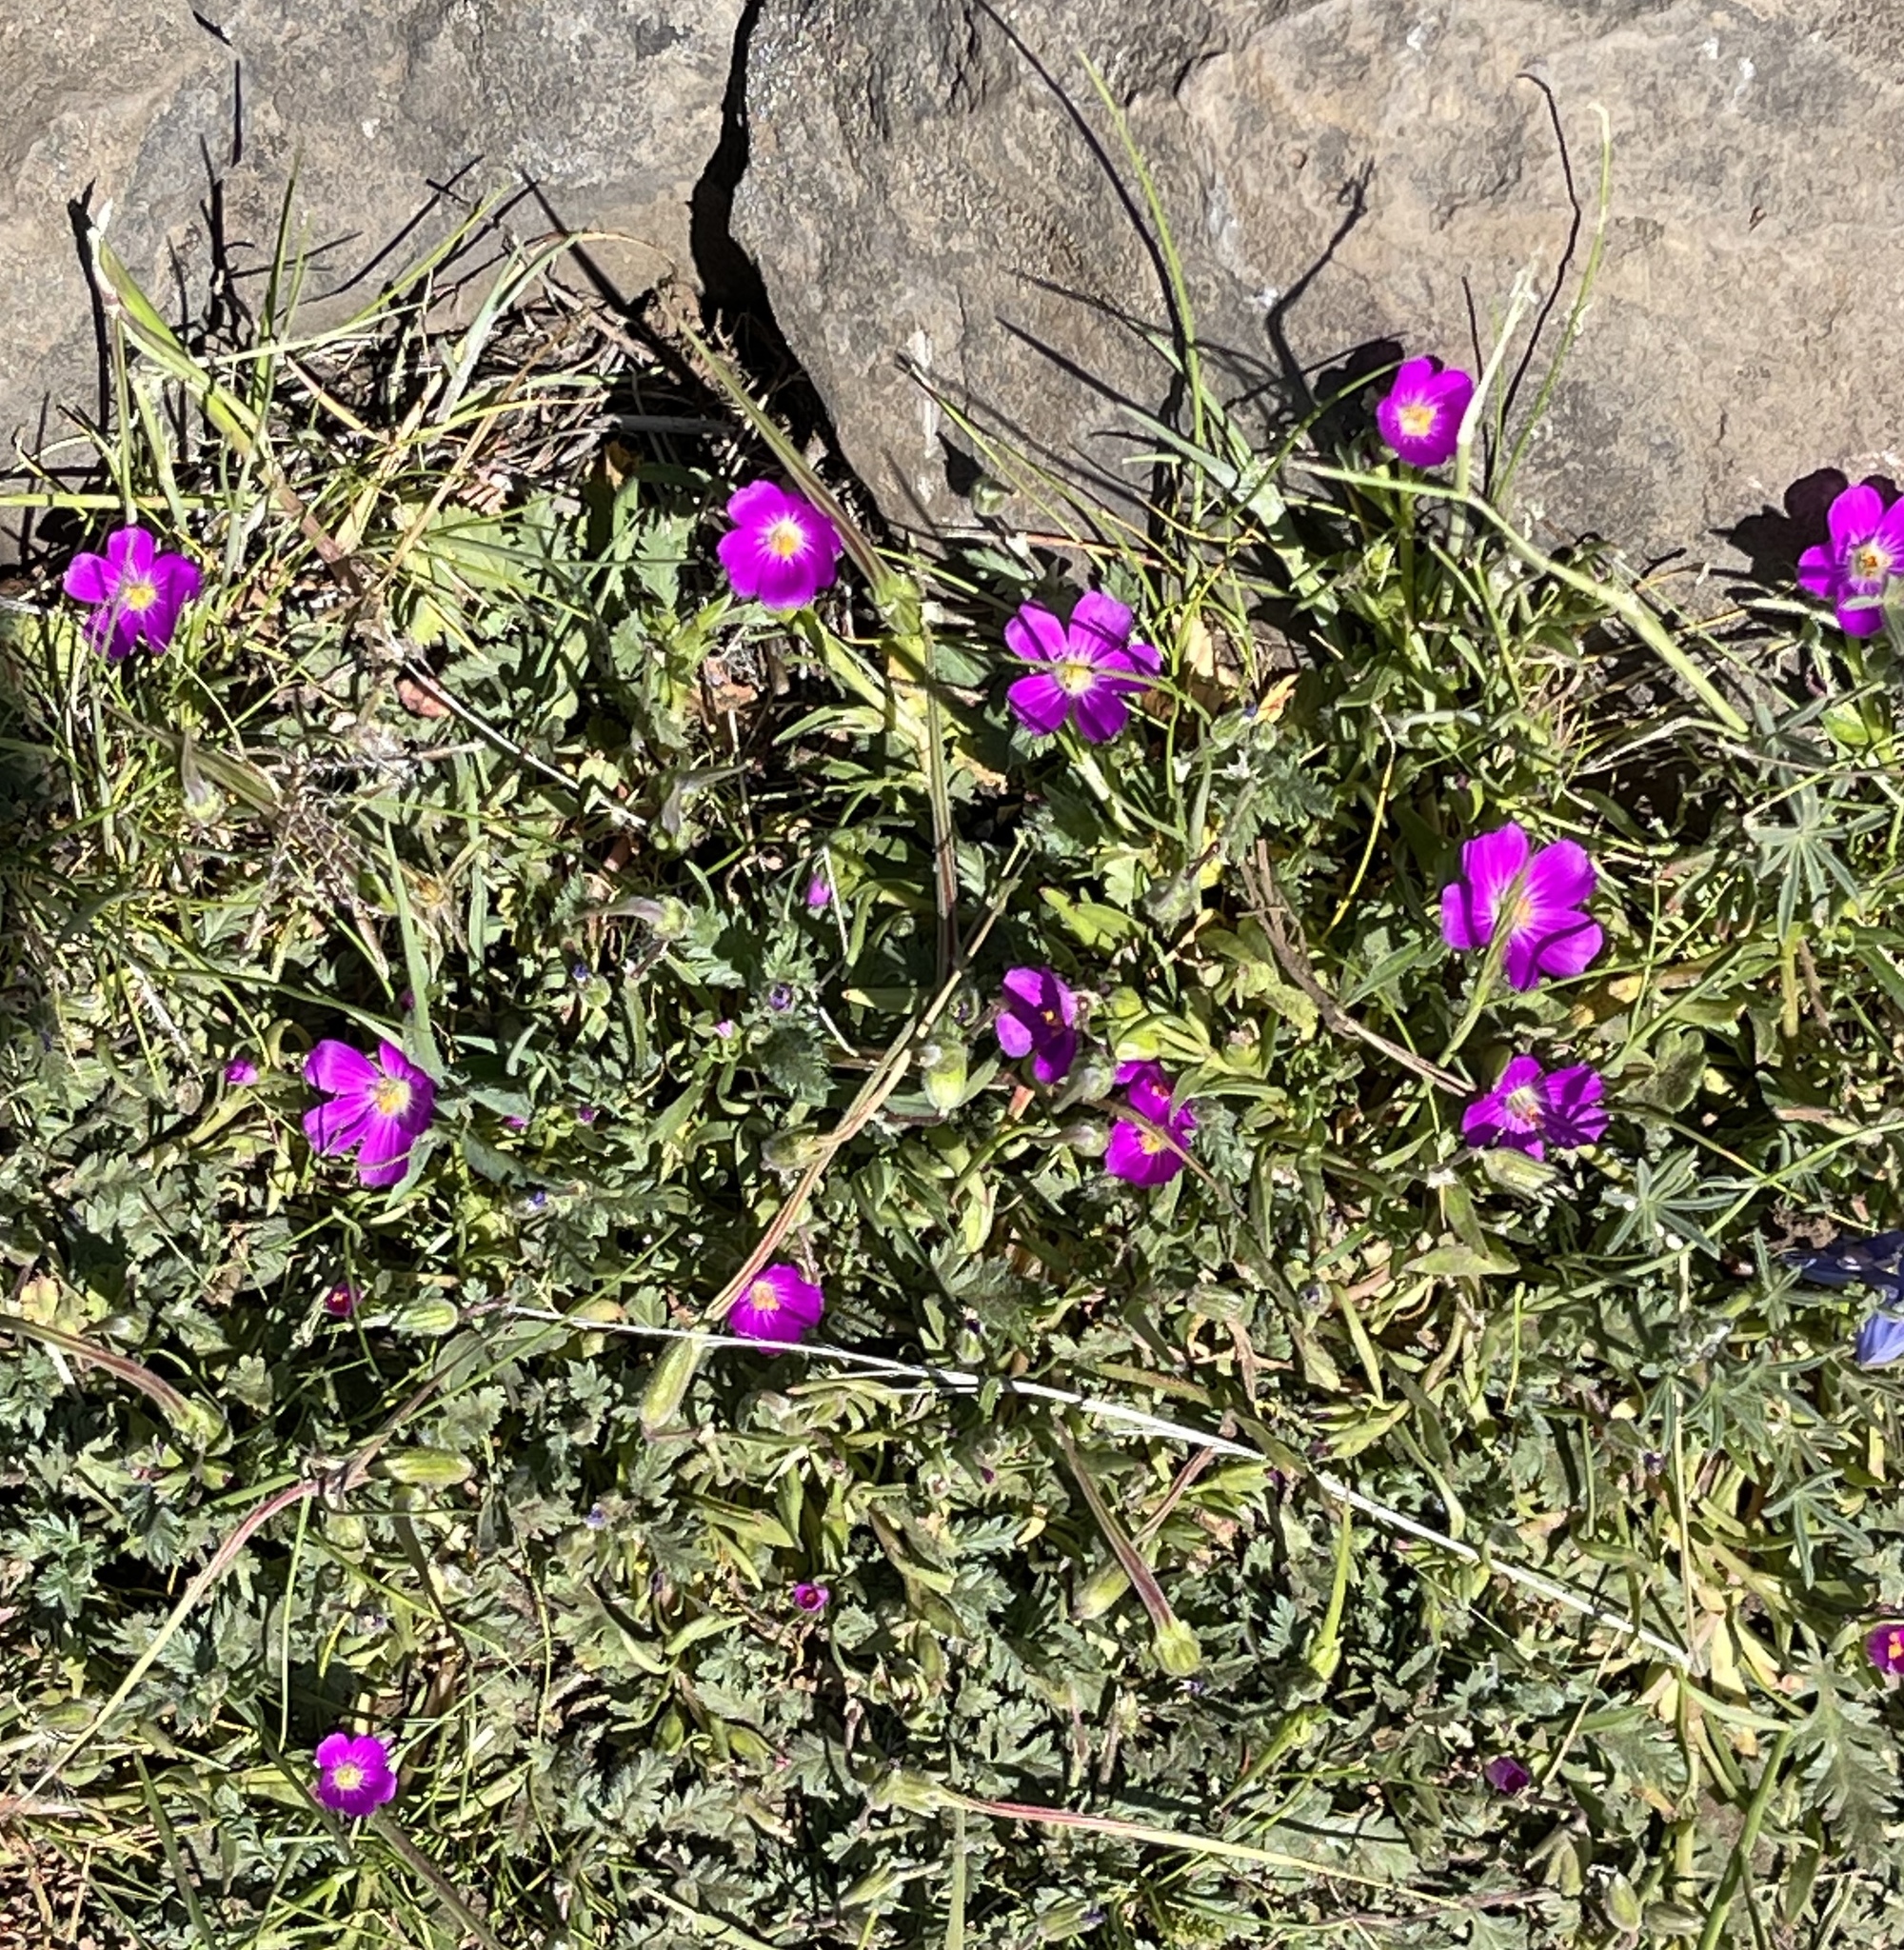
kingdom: Plantae
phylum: Tracheophyta
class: Magnoliopsida
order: Caryophyllales
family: Montiaceae
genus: Calandrinia
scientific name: Calandrinia menziesii
